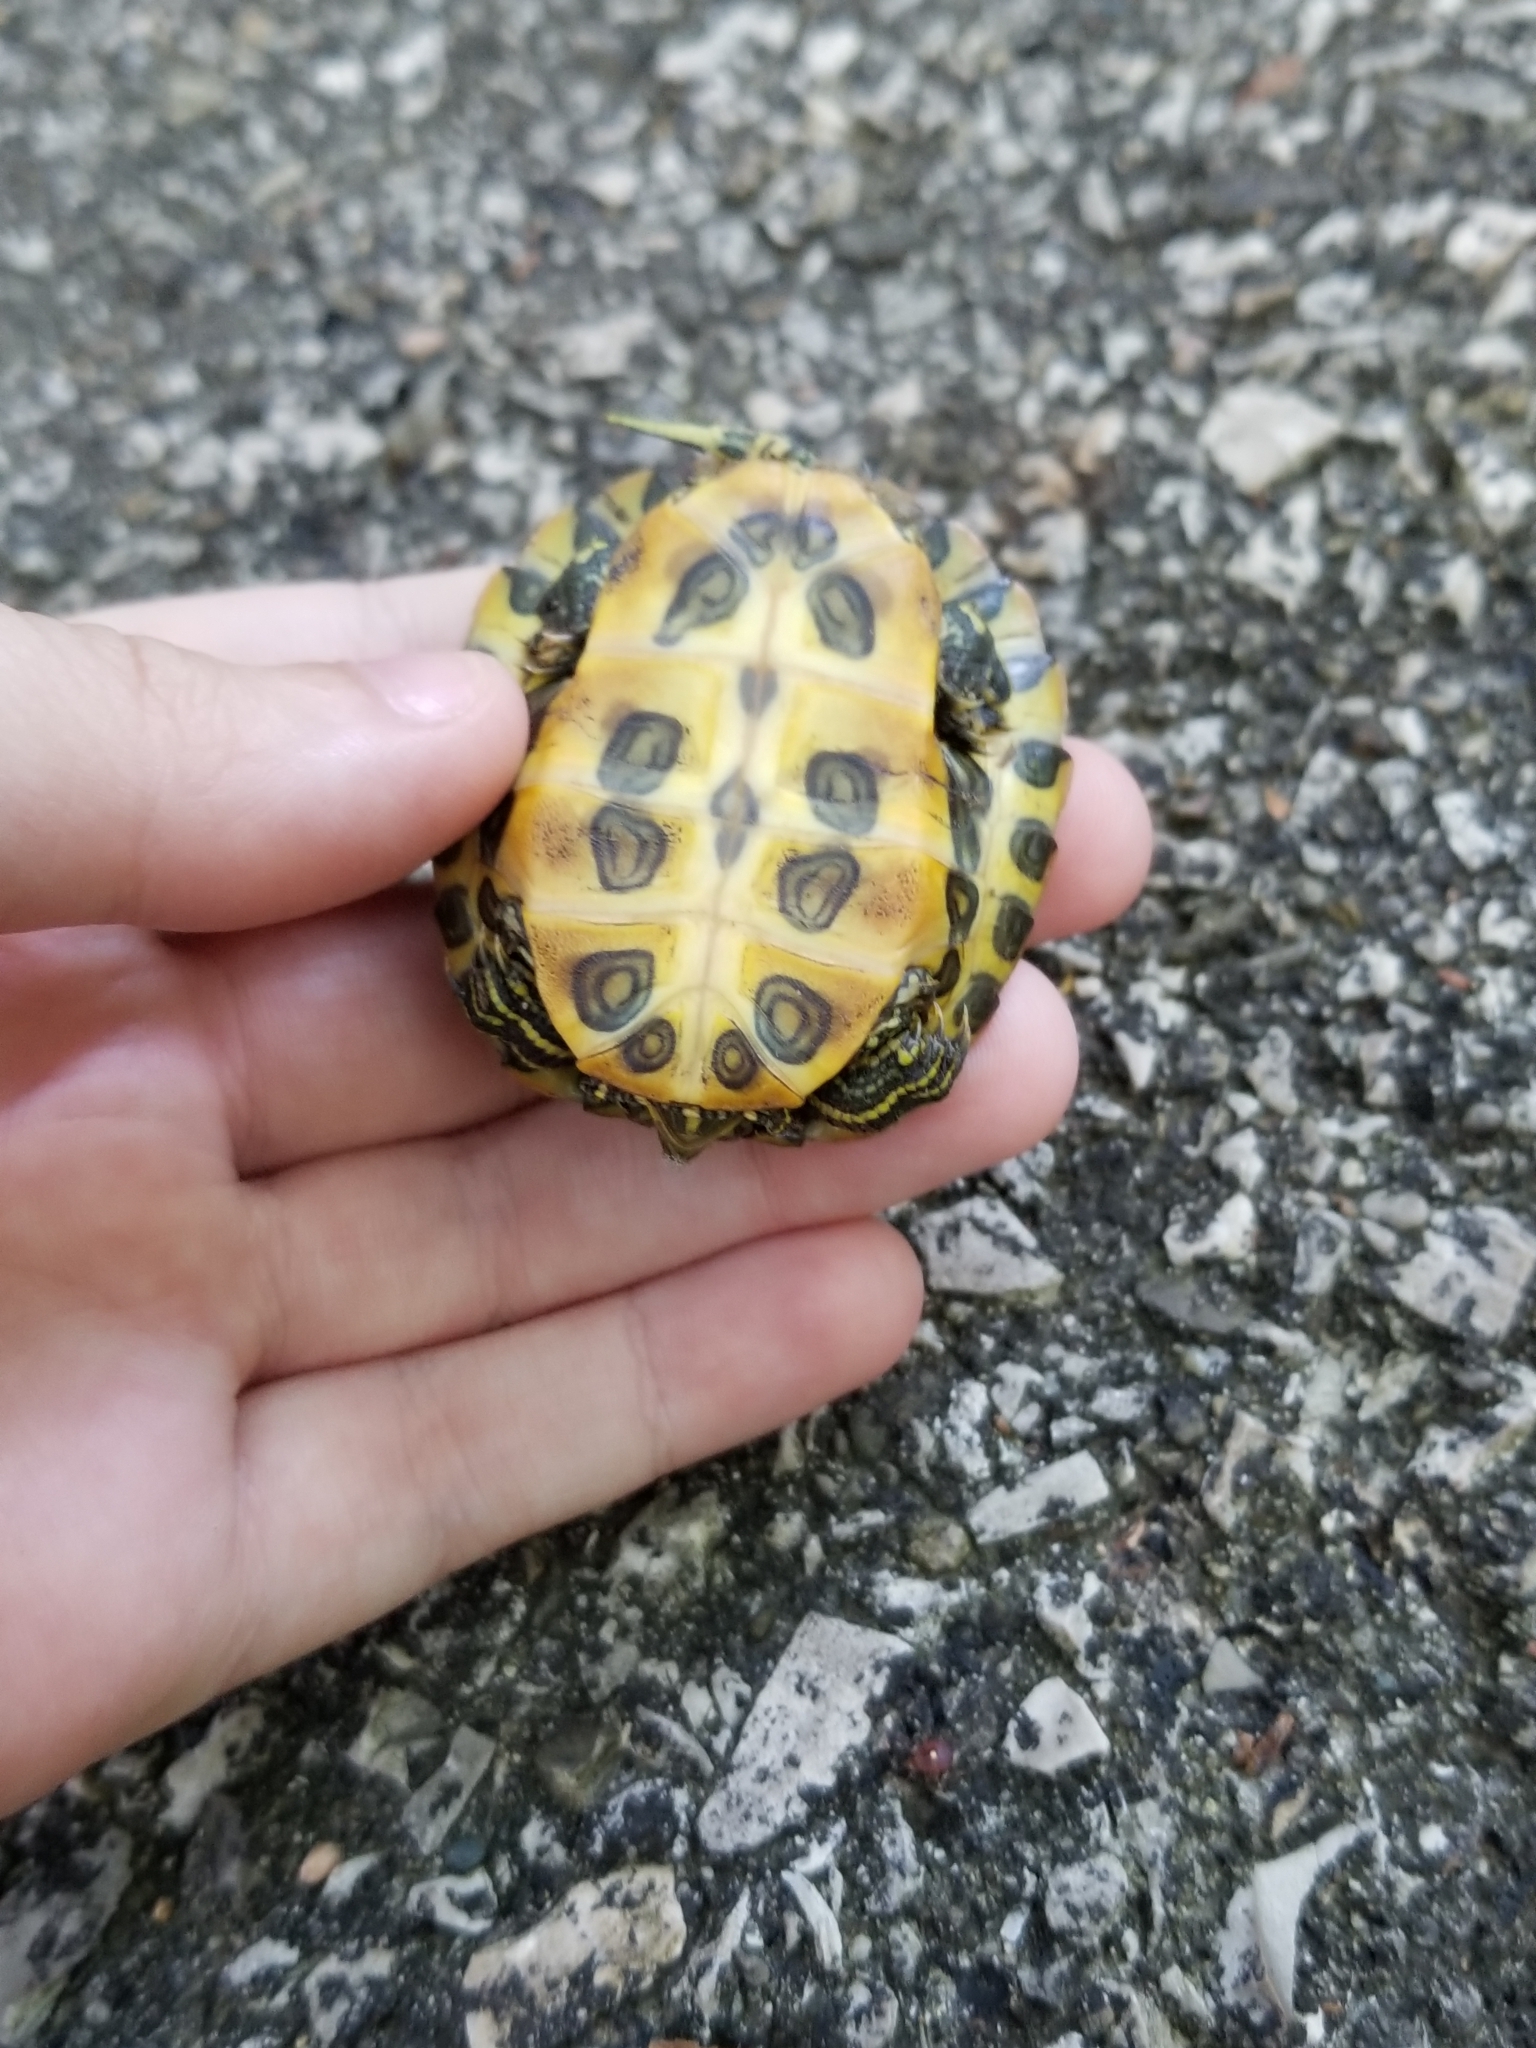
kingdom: Animalia
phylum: Chordata
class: Testudines
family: Emydidae
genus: Trachemys
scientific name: Trachemys scripta
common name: Slider
